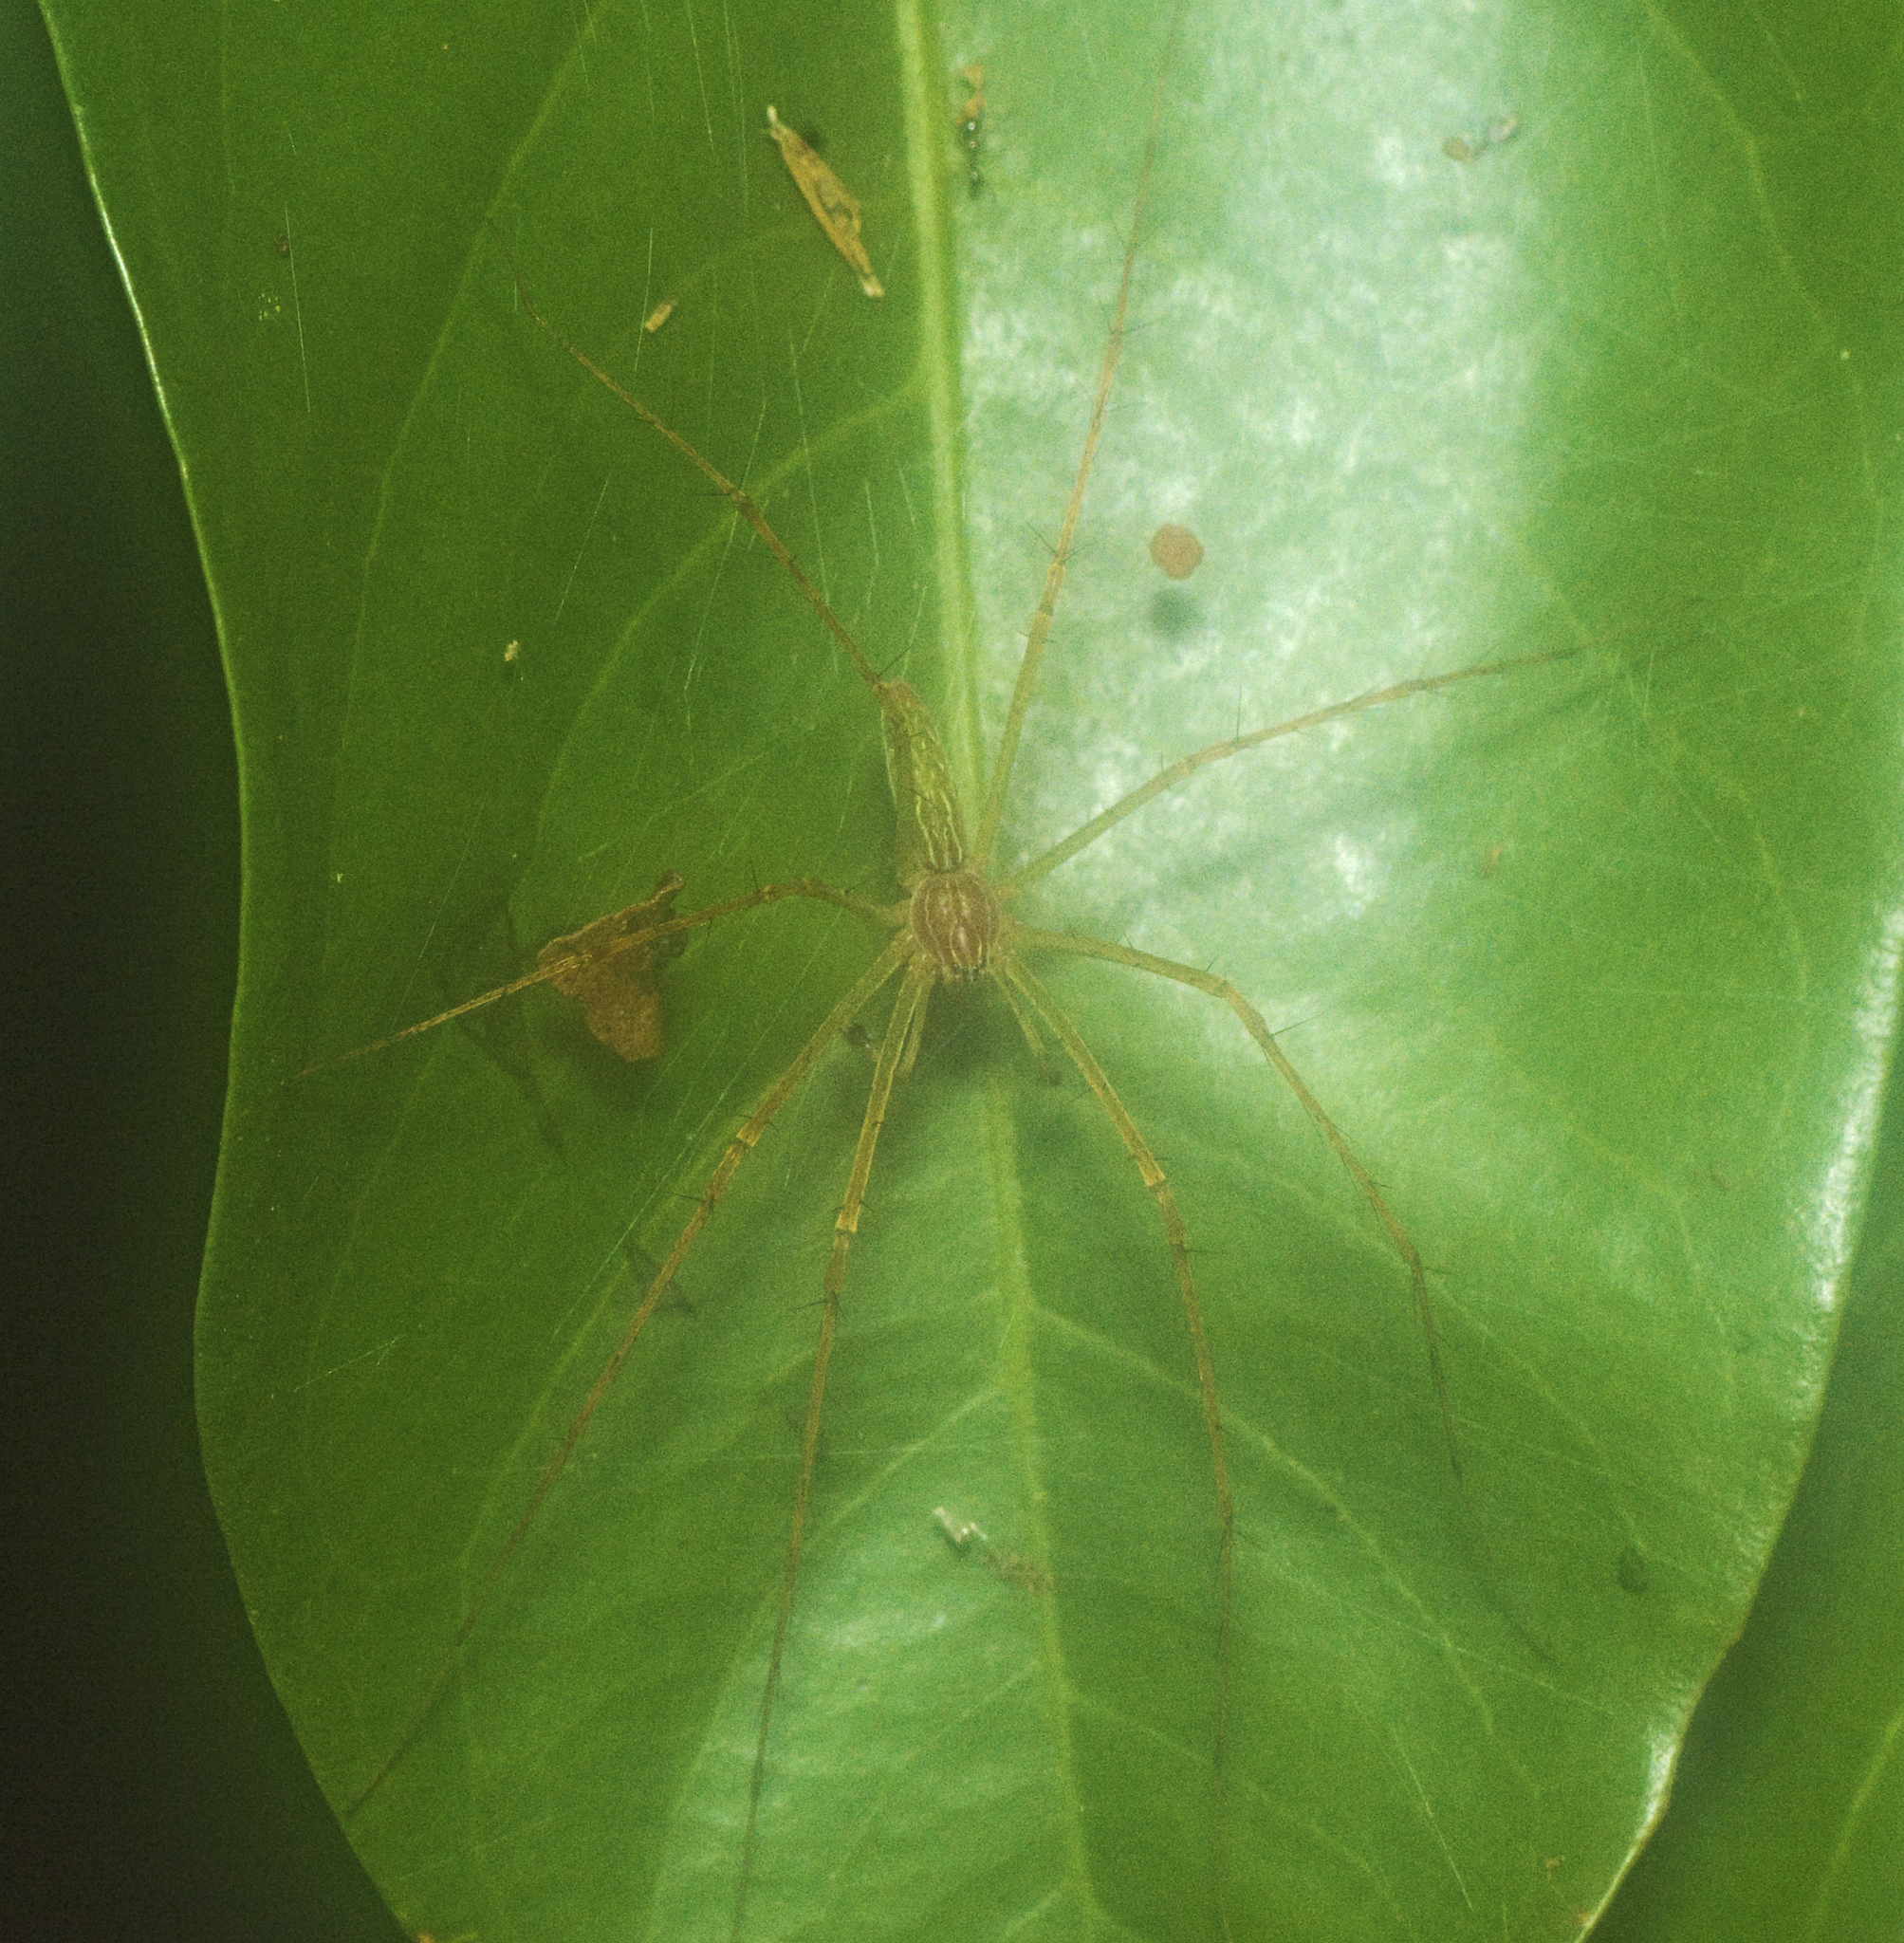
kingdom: Animalia
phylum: Arthropoda
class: Arachnida
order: Araneae
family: Pisauridae
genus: Hygropoda
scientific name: Hygropoda lineata
